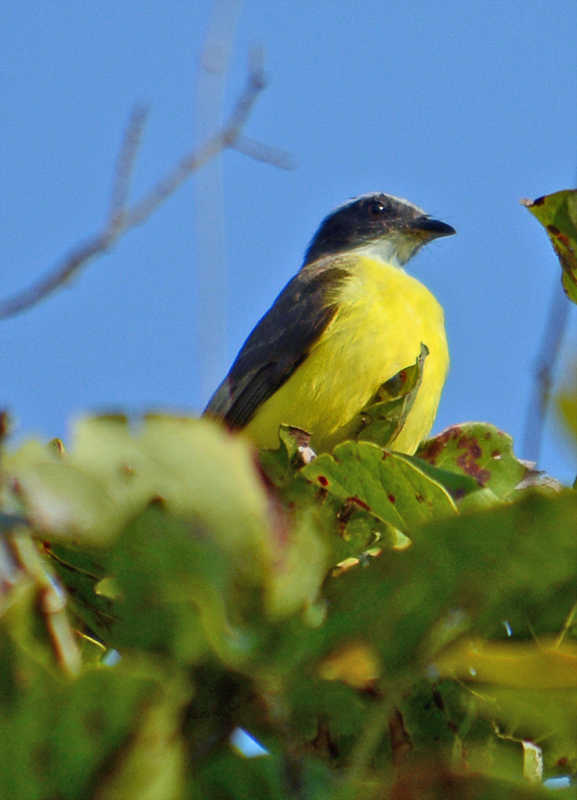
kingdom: Animalia
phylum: Chordata
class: Aves
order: Passeriformes
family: Tyrannidae
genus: Myiozetetes
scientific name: Myiozetetes similis
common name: Social flycatcher
